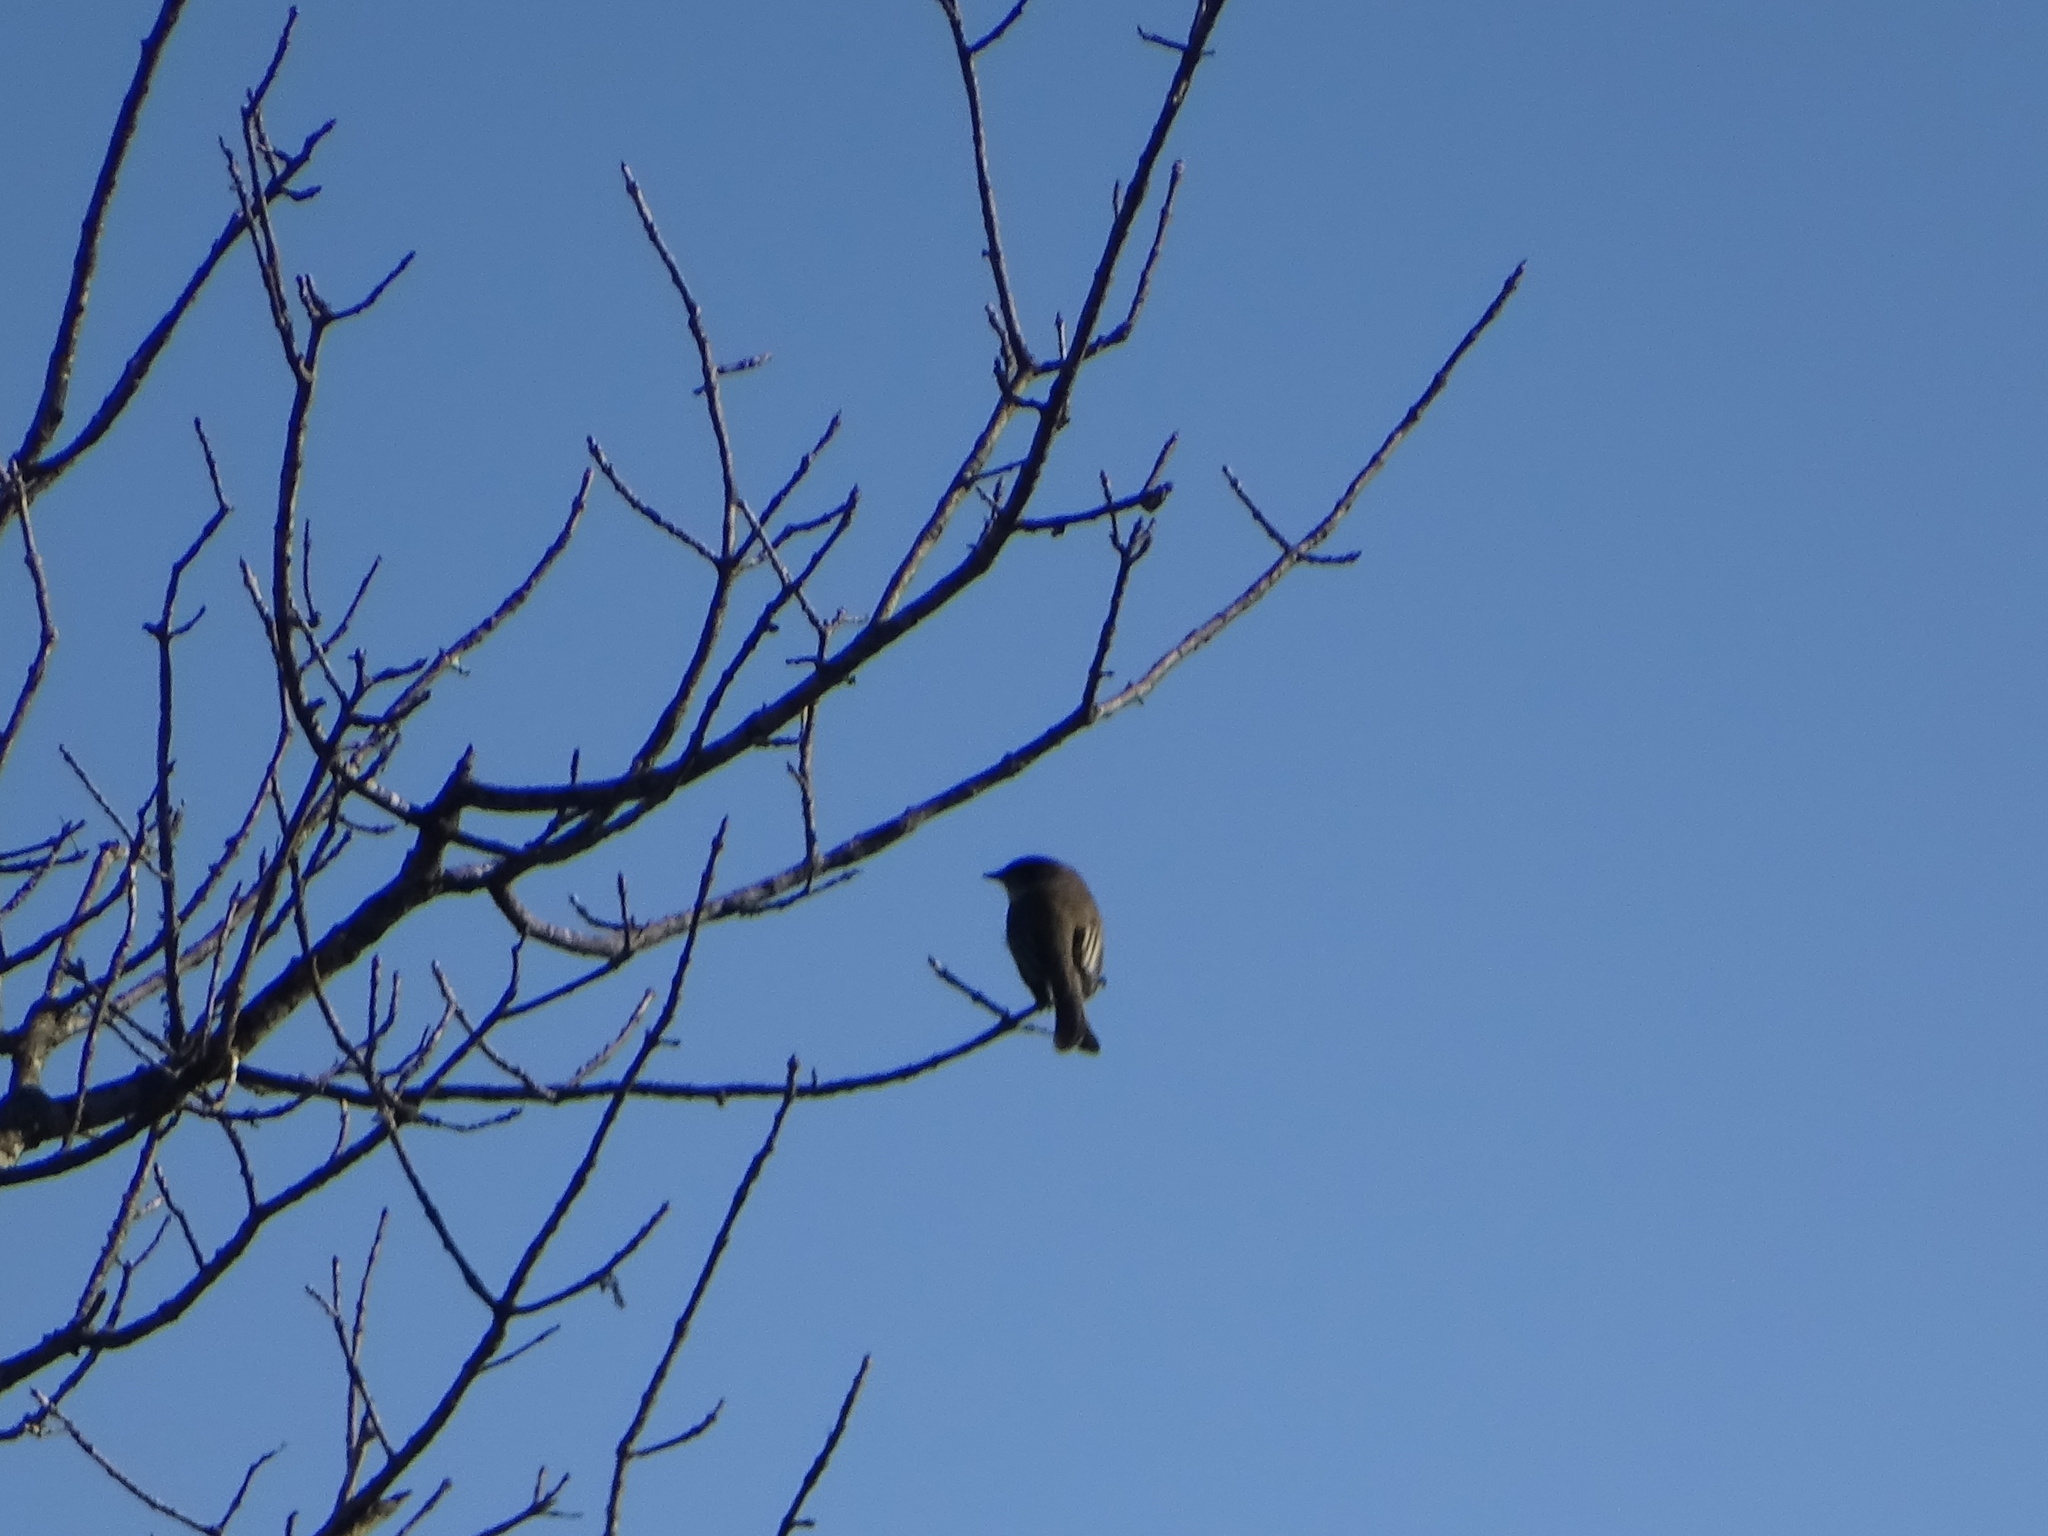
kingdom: Animalia
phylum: Chordata
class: Aves
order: Passeriformes
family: Tyrannidae
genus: Sayornis
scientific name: Sayornis phoebe
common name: Eastern phoebe
